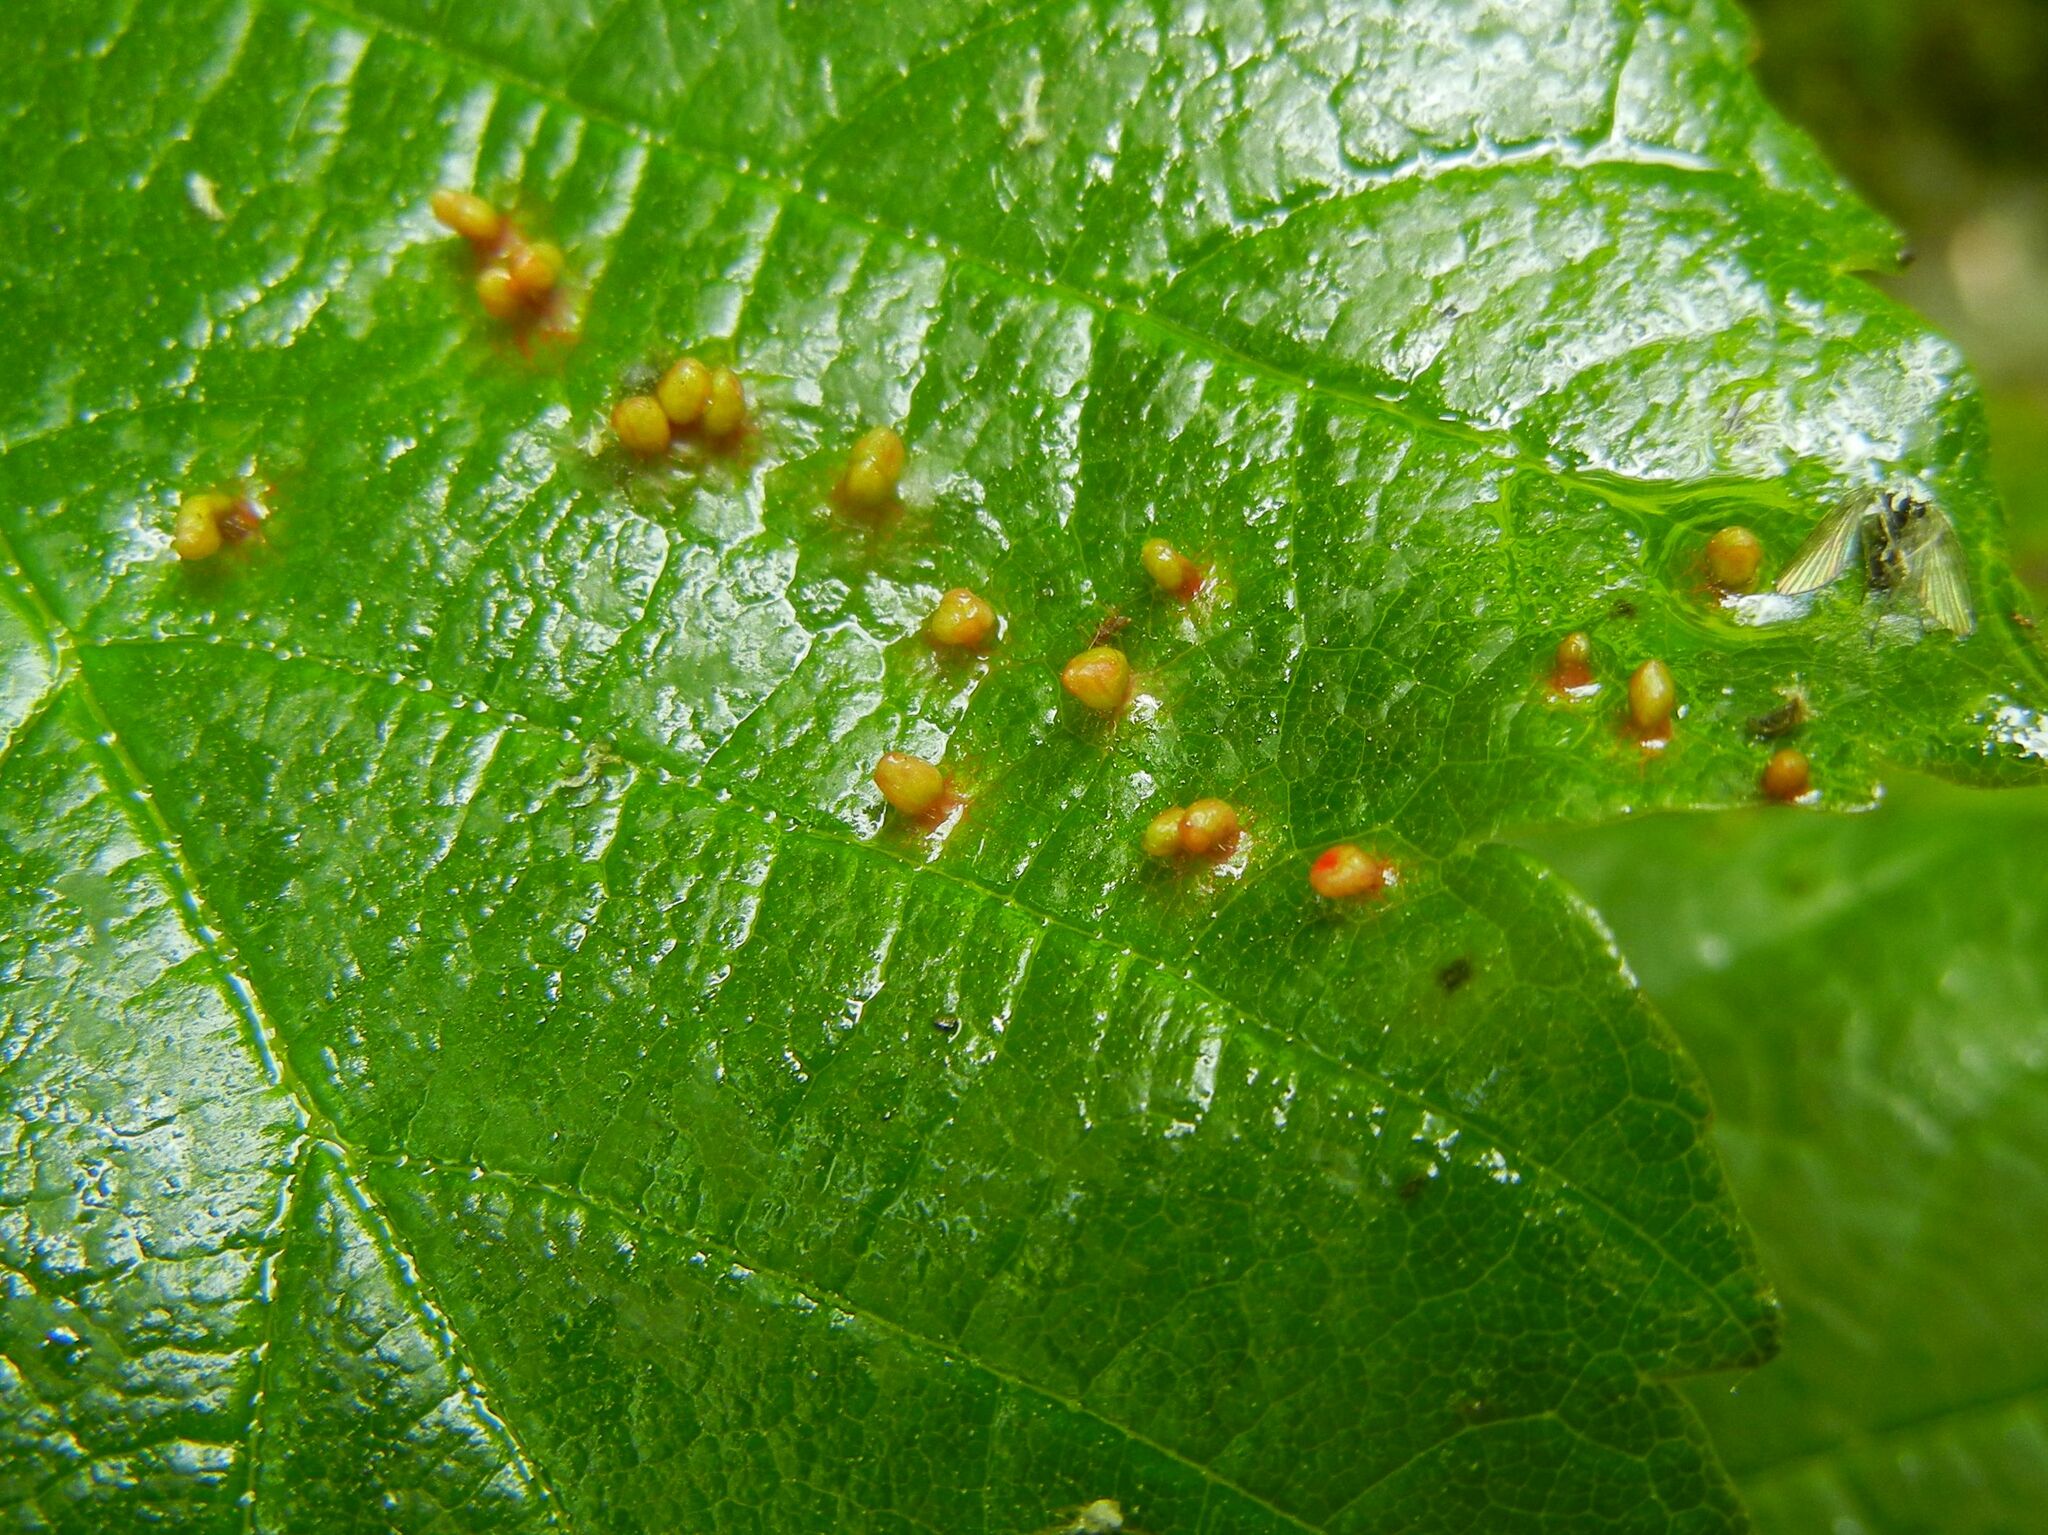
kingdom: Animalia
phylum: Arthropoda
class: Arachnida
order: Trombidiformes
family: Eriophyidae
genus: Aceria
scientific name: Aceria cephaloneus
